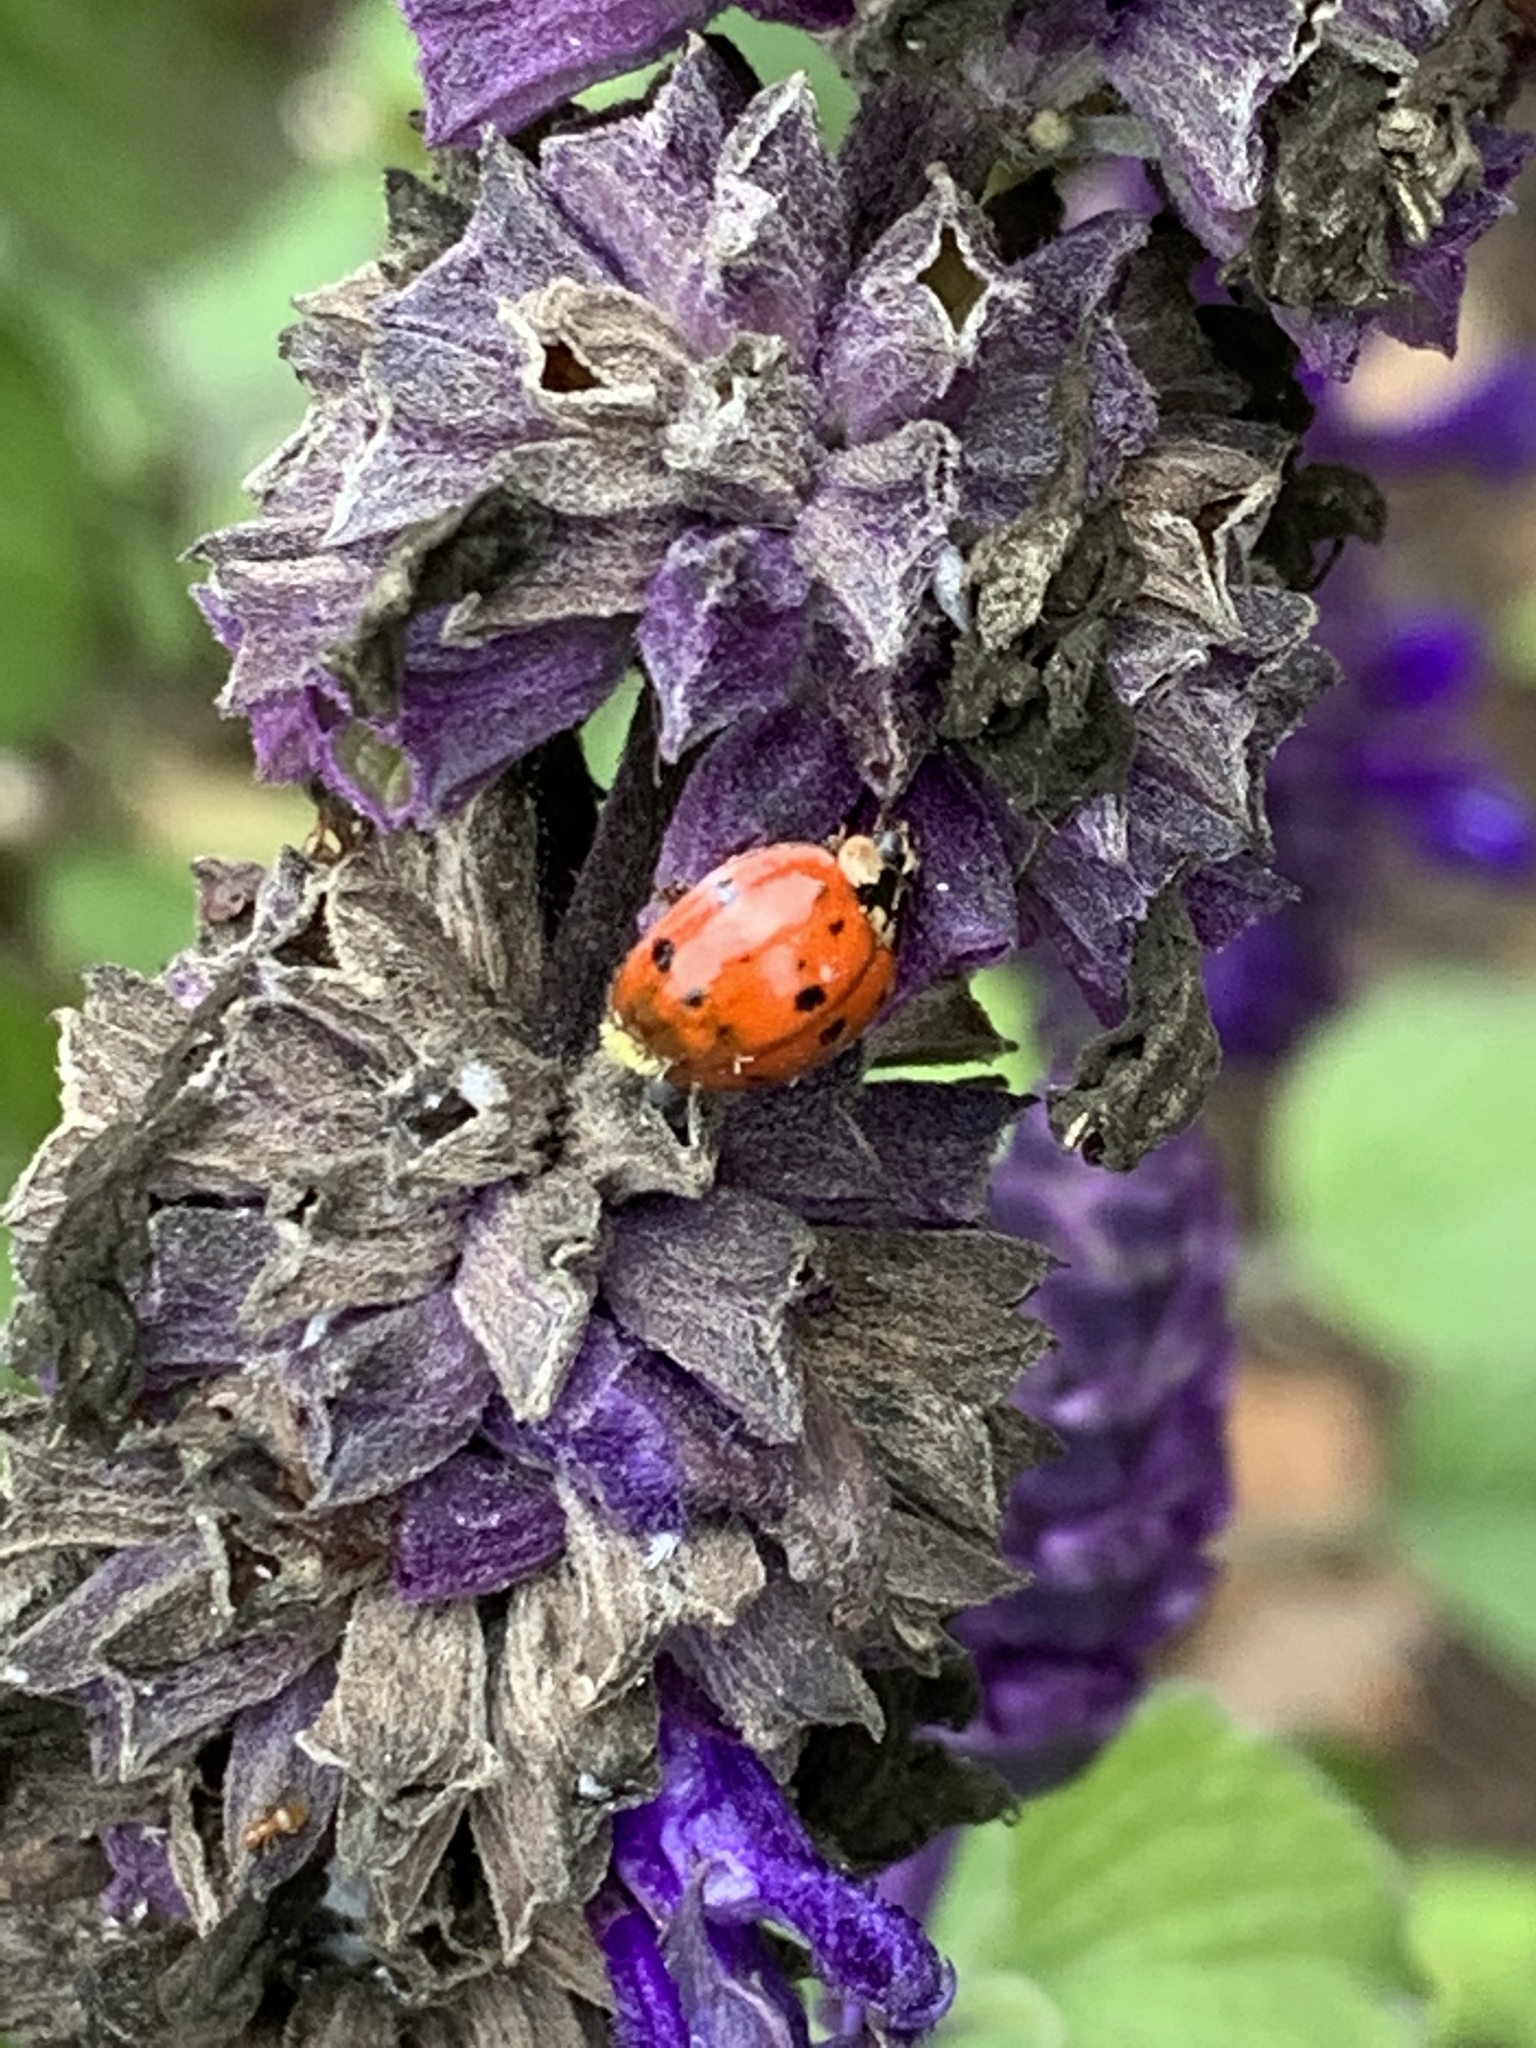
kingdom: Animalia
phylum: Arthropoda
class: Insecta
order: Coleoptera
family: Coccinellidae
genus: Harmonia
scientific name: Harmonia axyridis
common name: Harlequin ladybird
